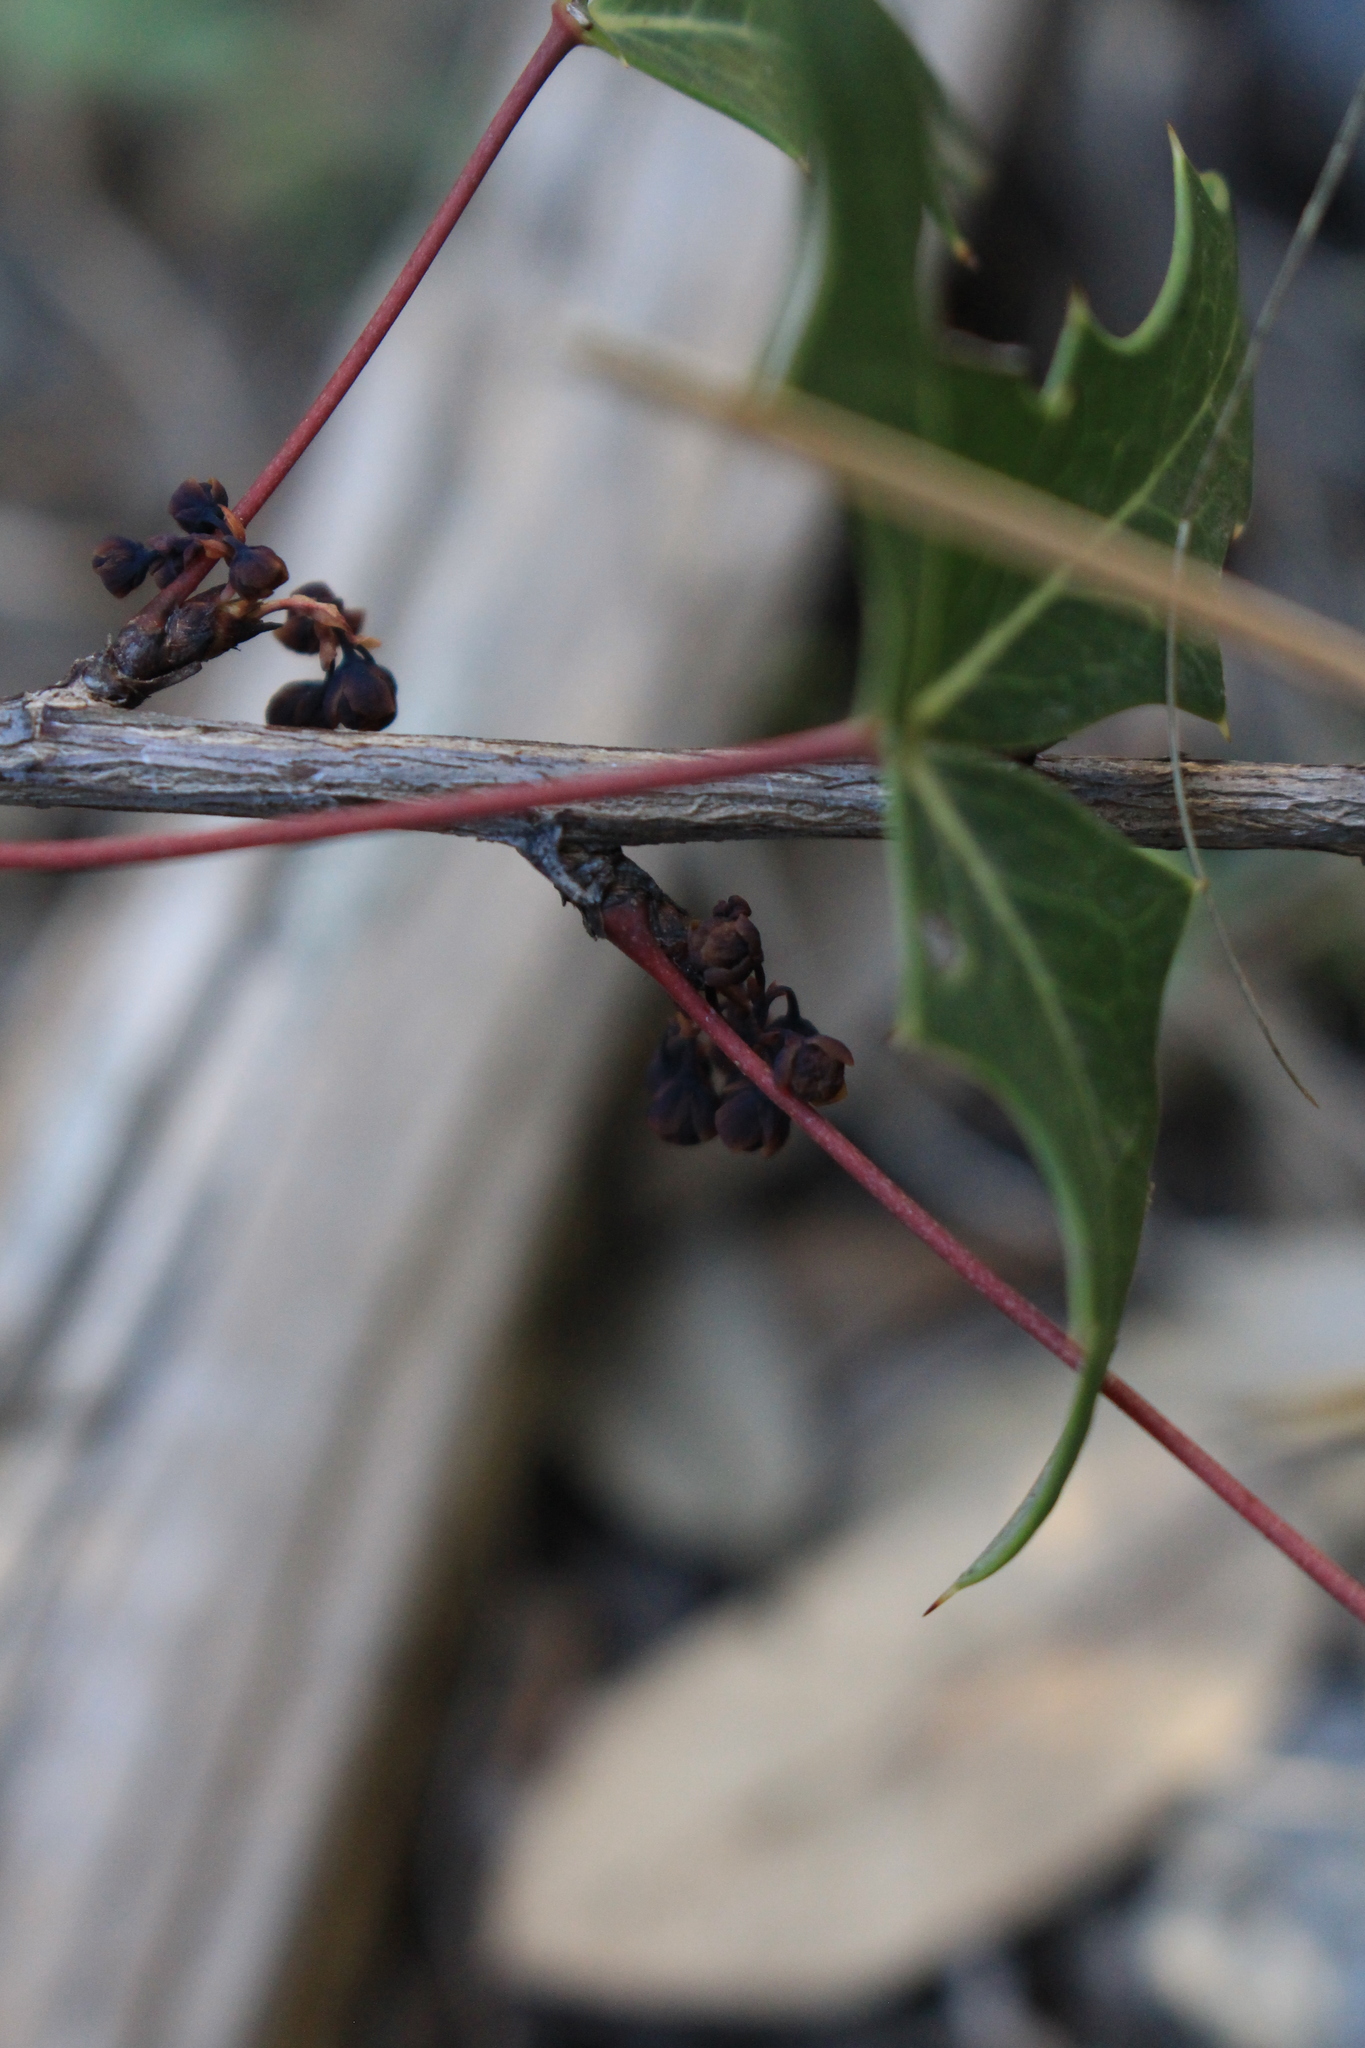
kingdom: Plantae
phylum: Tracheophyta
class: Magnoliopsida
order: Ranunculales
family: Berberidaceae
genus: Alloberberis
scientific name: Alloberberis trifoliolata
